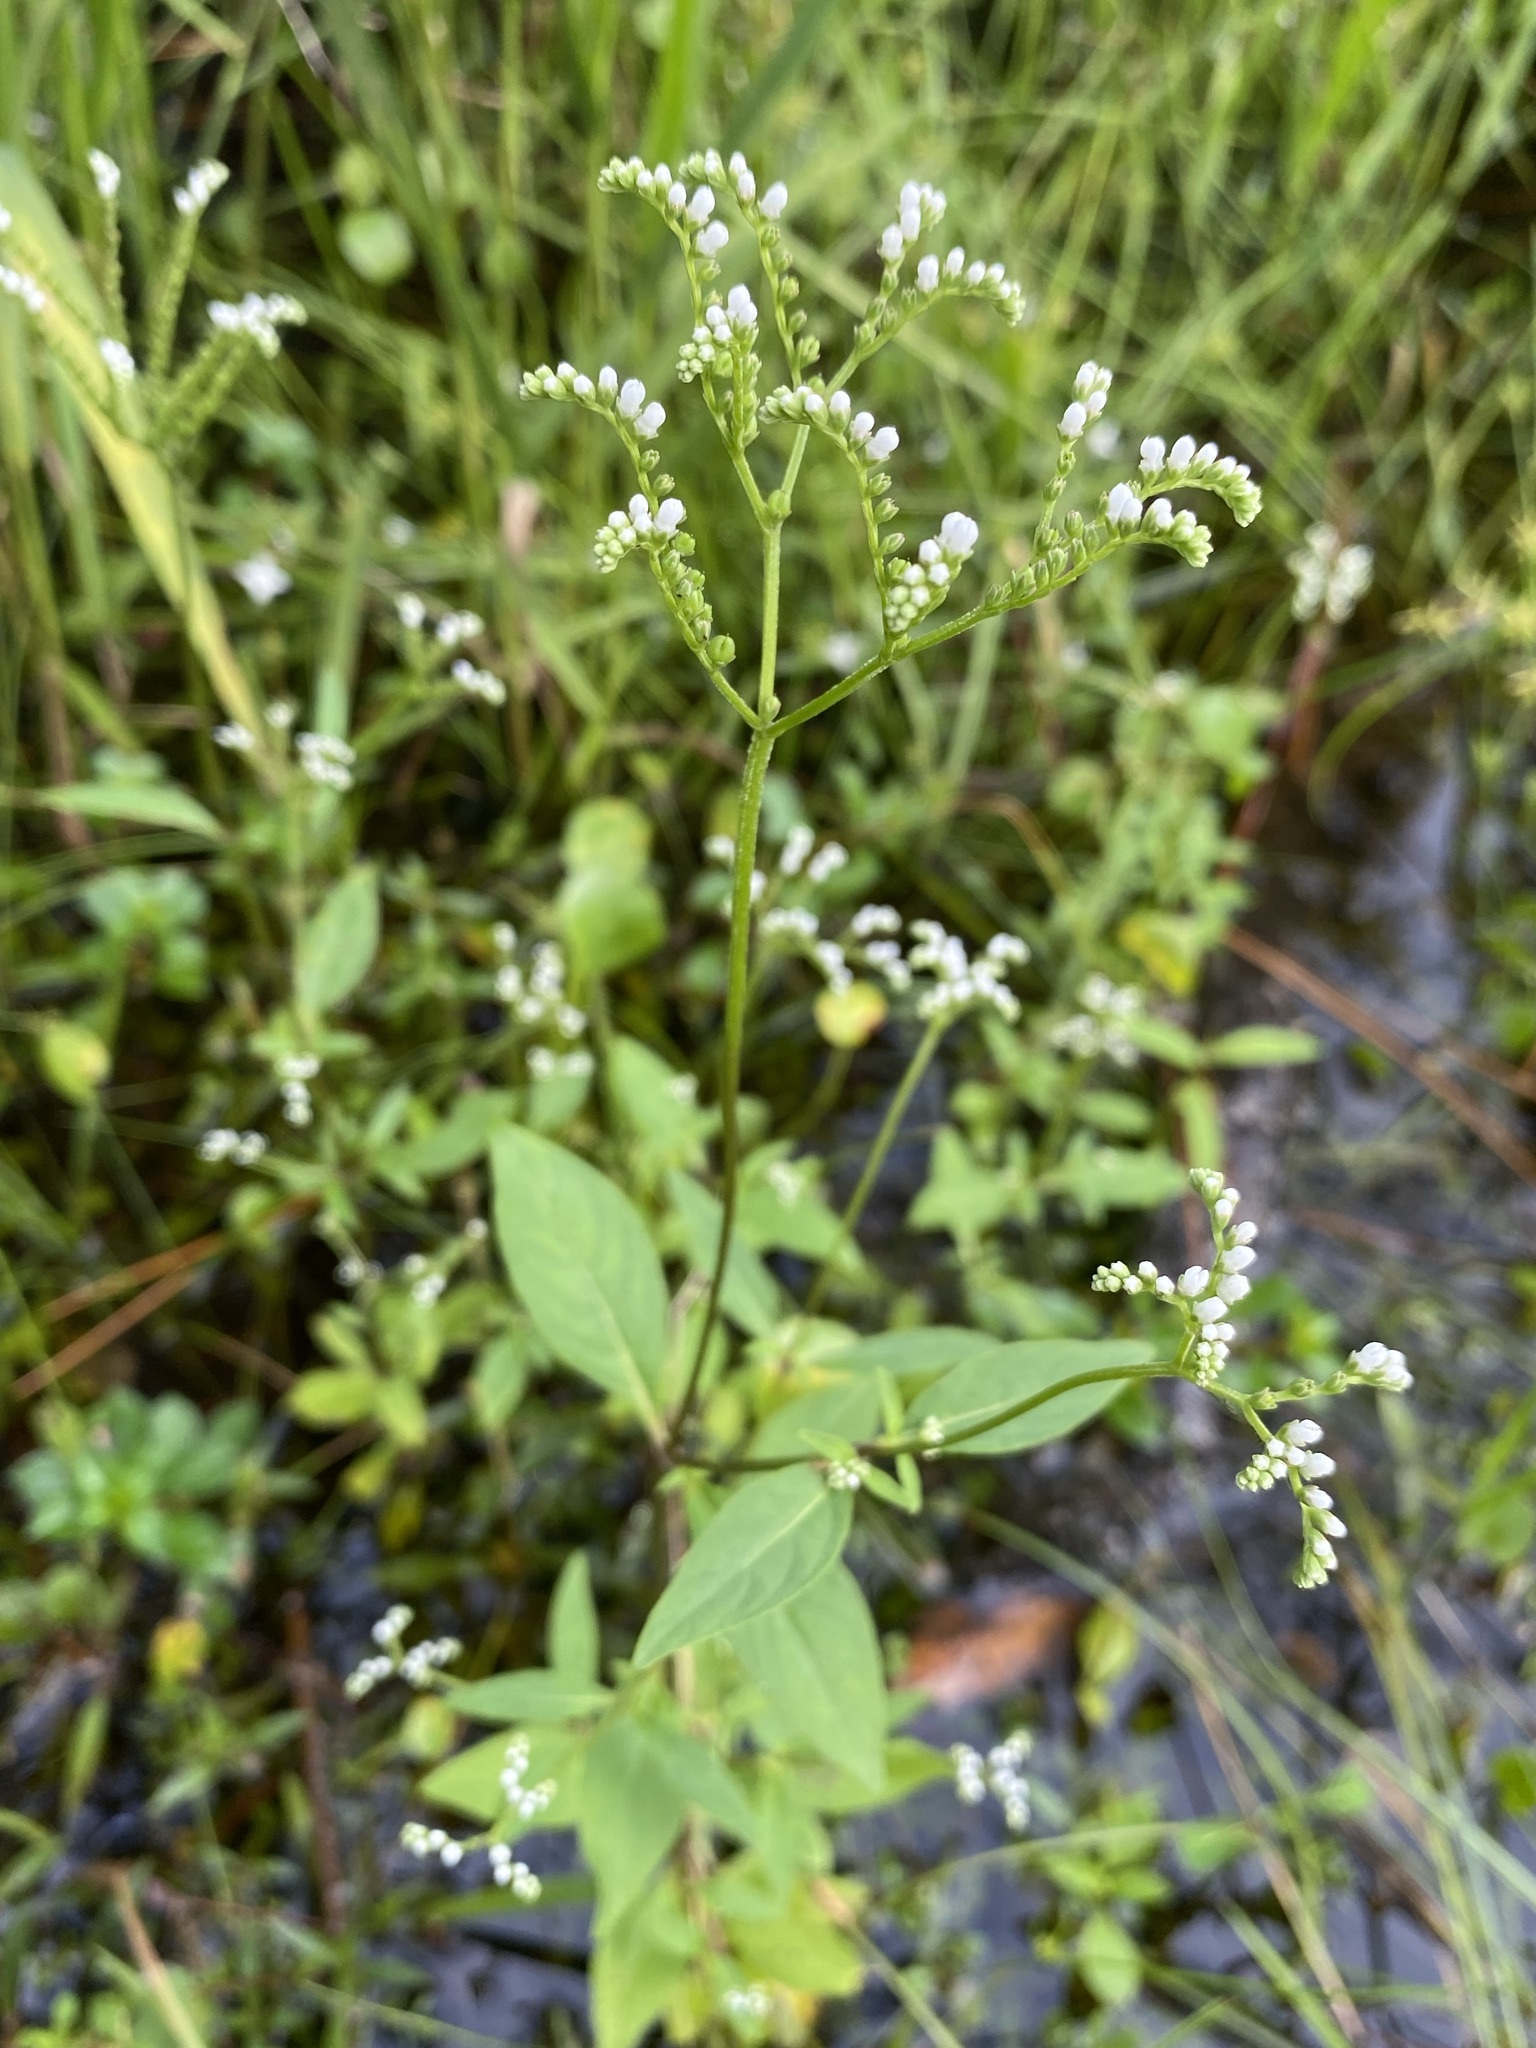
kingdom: Plantae
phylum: Tracheophyta
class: Magnoliopsida
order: Gentianales
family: Loganiaceae
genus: Mitreola
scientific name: Mitreola petiolata
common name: Lax hornpod
